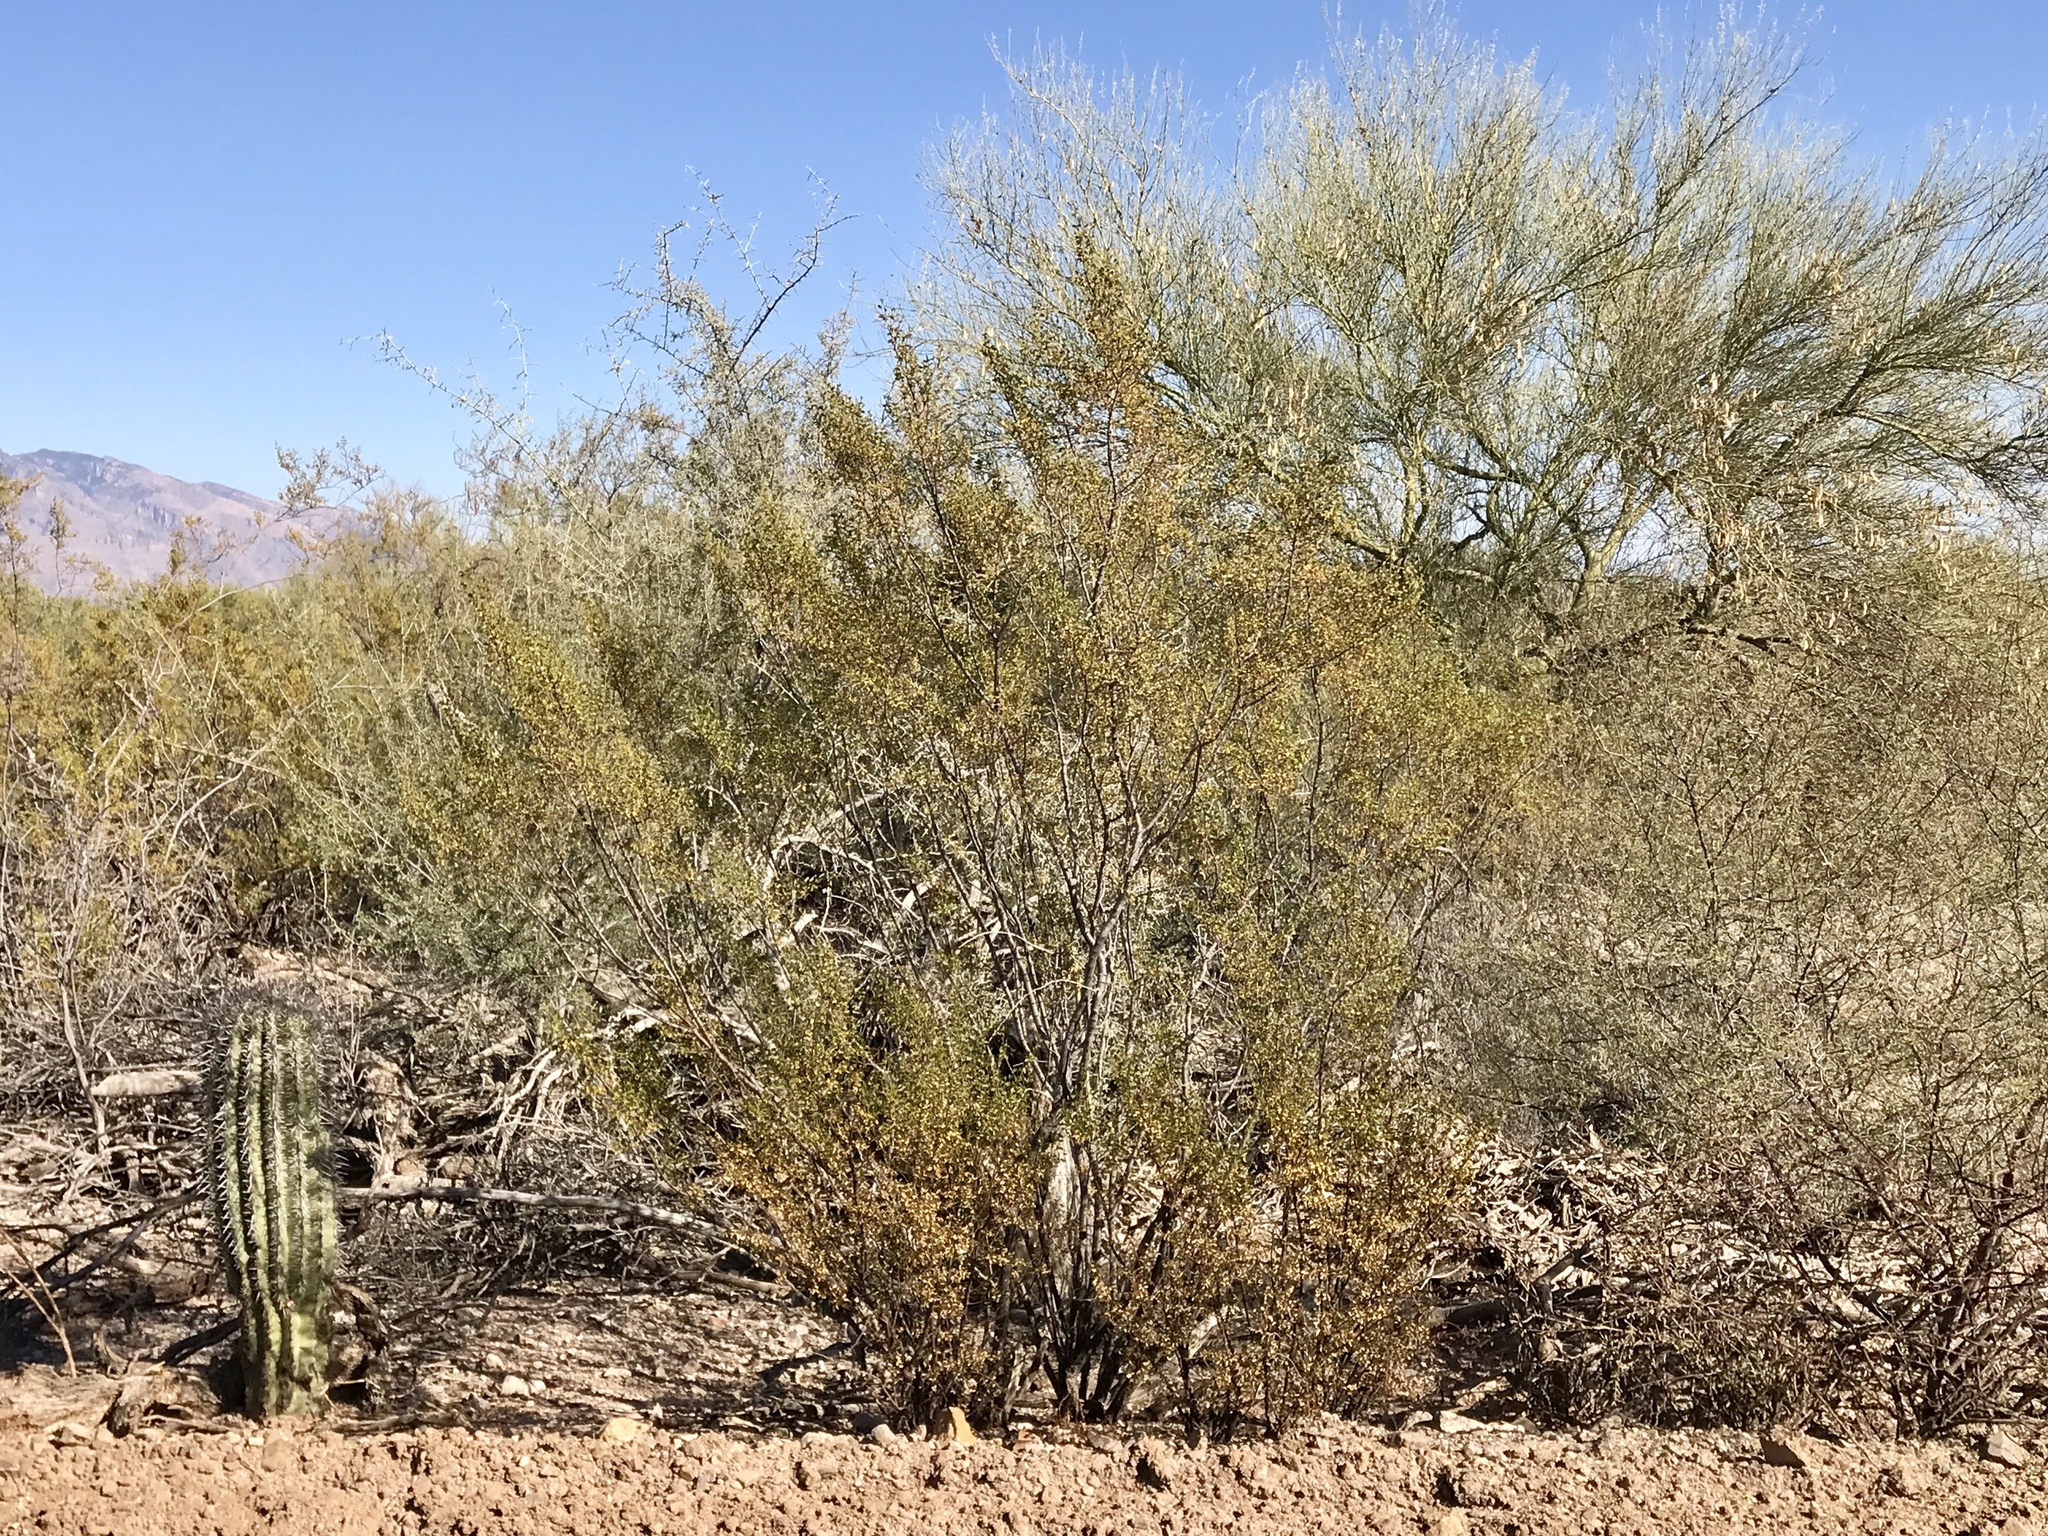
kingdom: Plantae
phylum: Tracheophyta
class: Magnoliopsida
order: Zygophyllales
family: Zygophyllaceae
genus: Larrea
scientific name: Larrea tridentata
